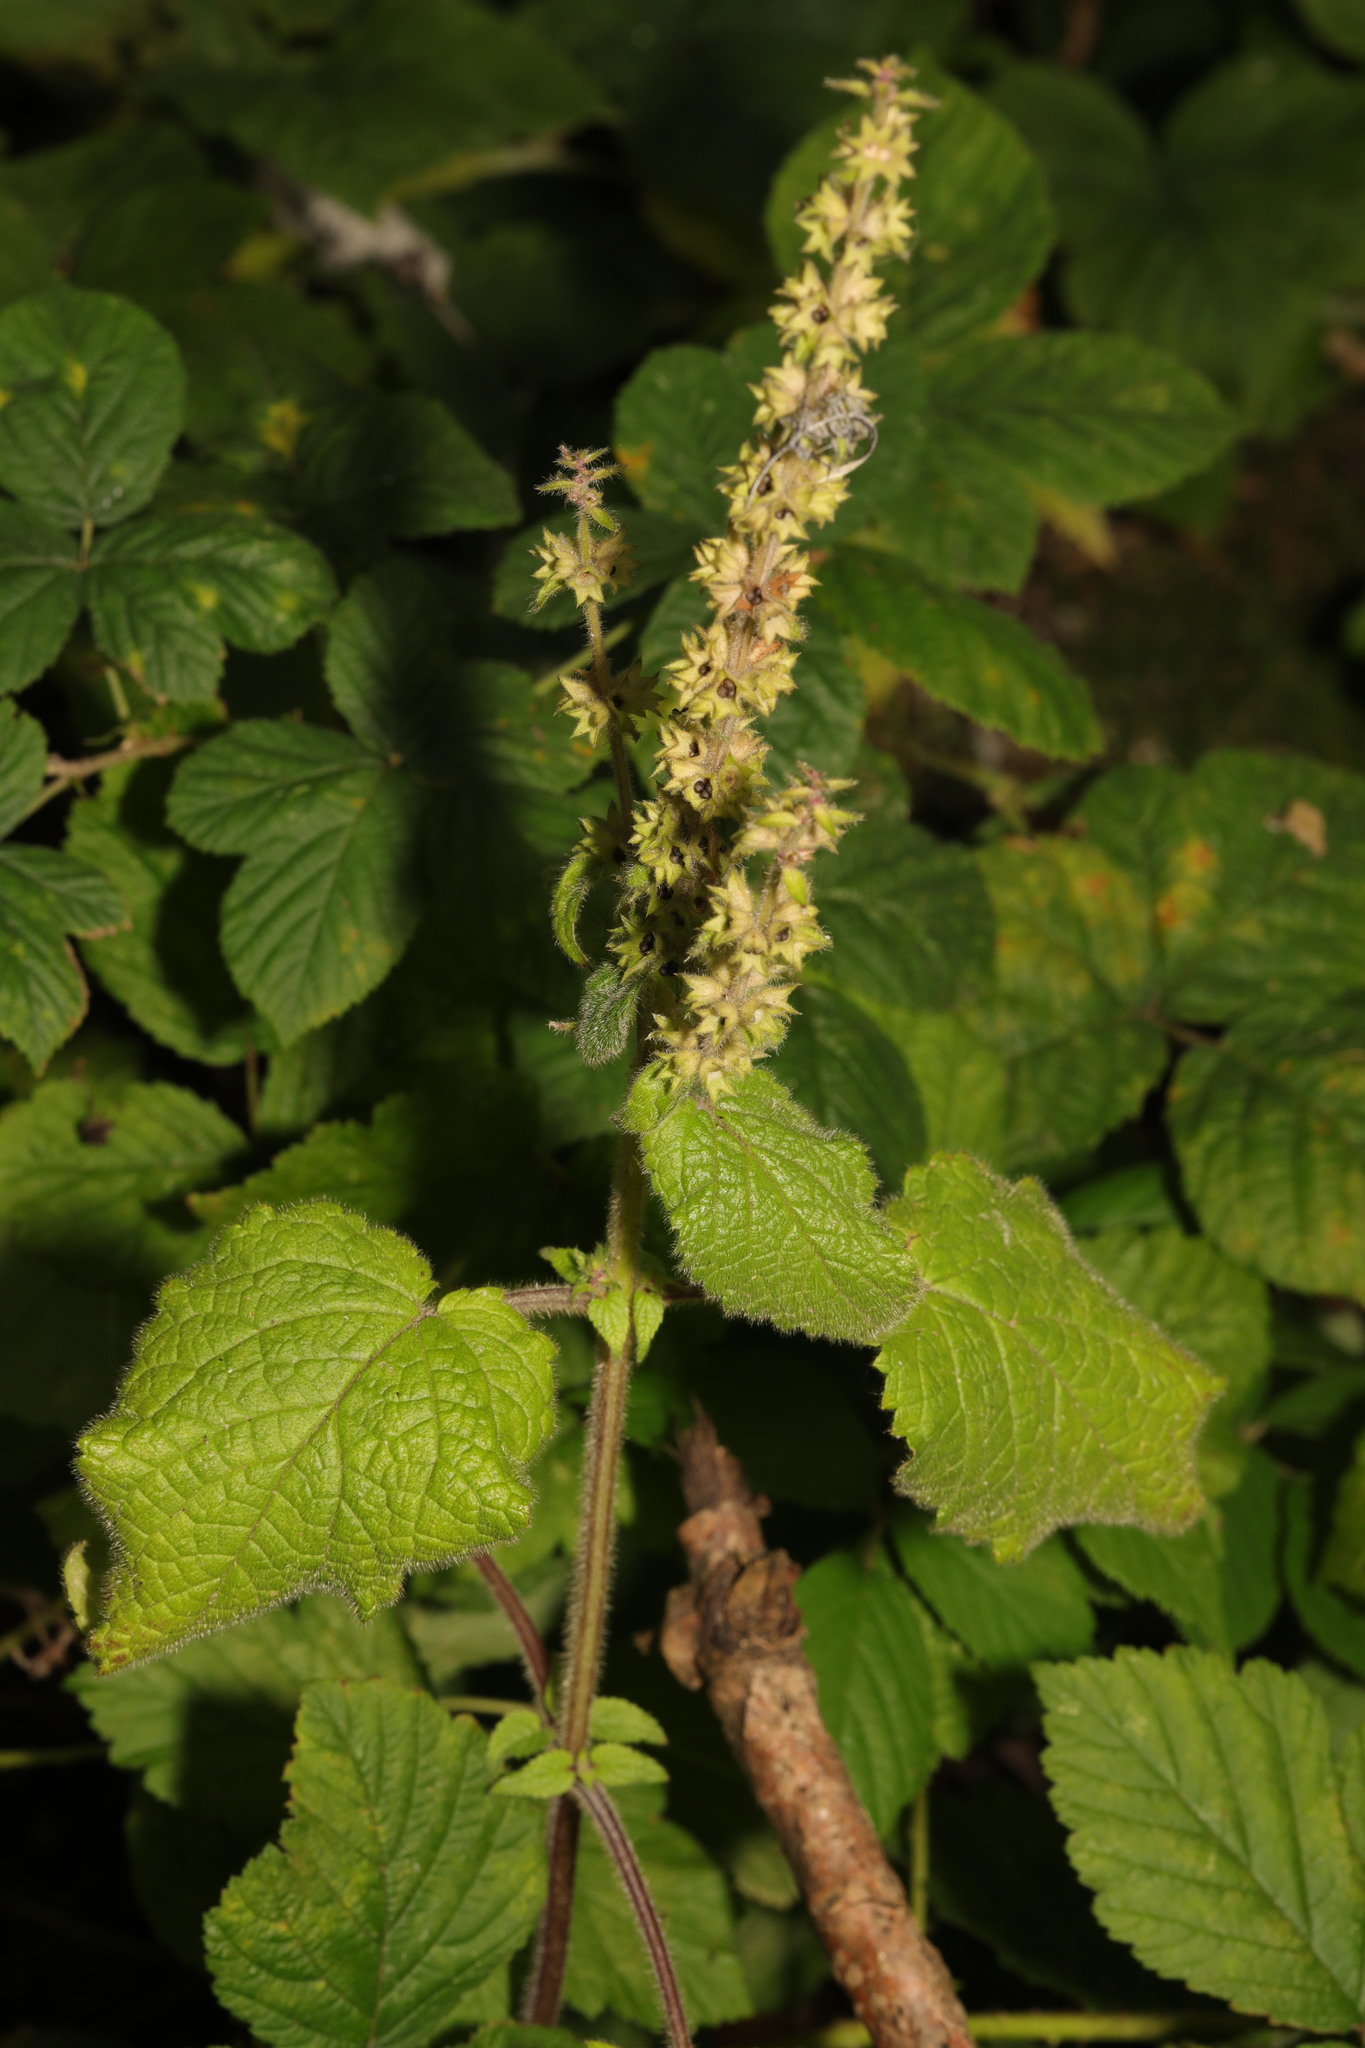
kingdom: Plantae
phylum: Tracheophyta
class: Magnoliopsida
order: Lamiales
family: Lamiaceae
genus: Stachys
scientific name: Stachys sylvatica
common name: Hedge woundwort
